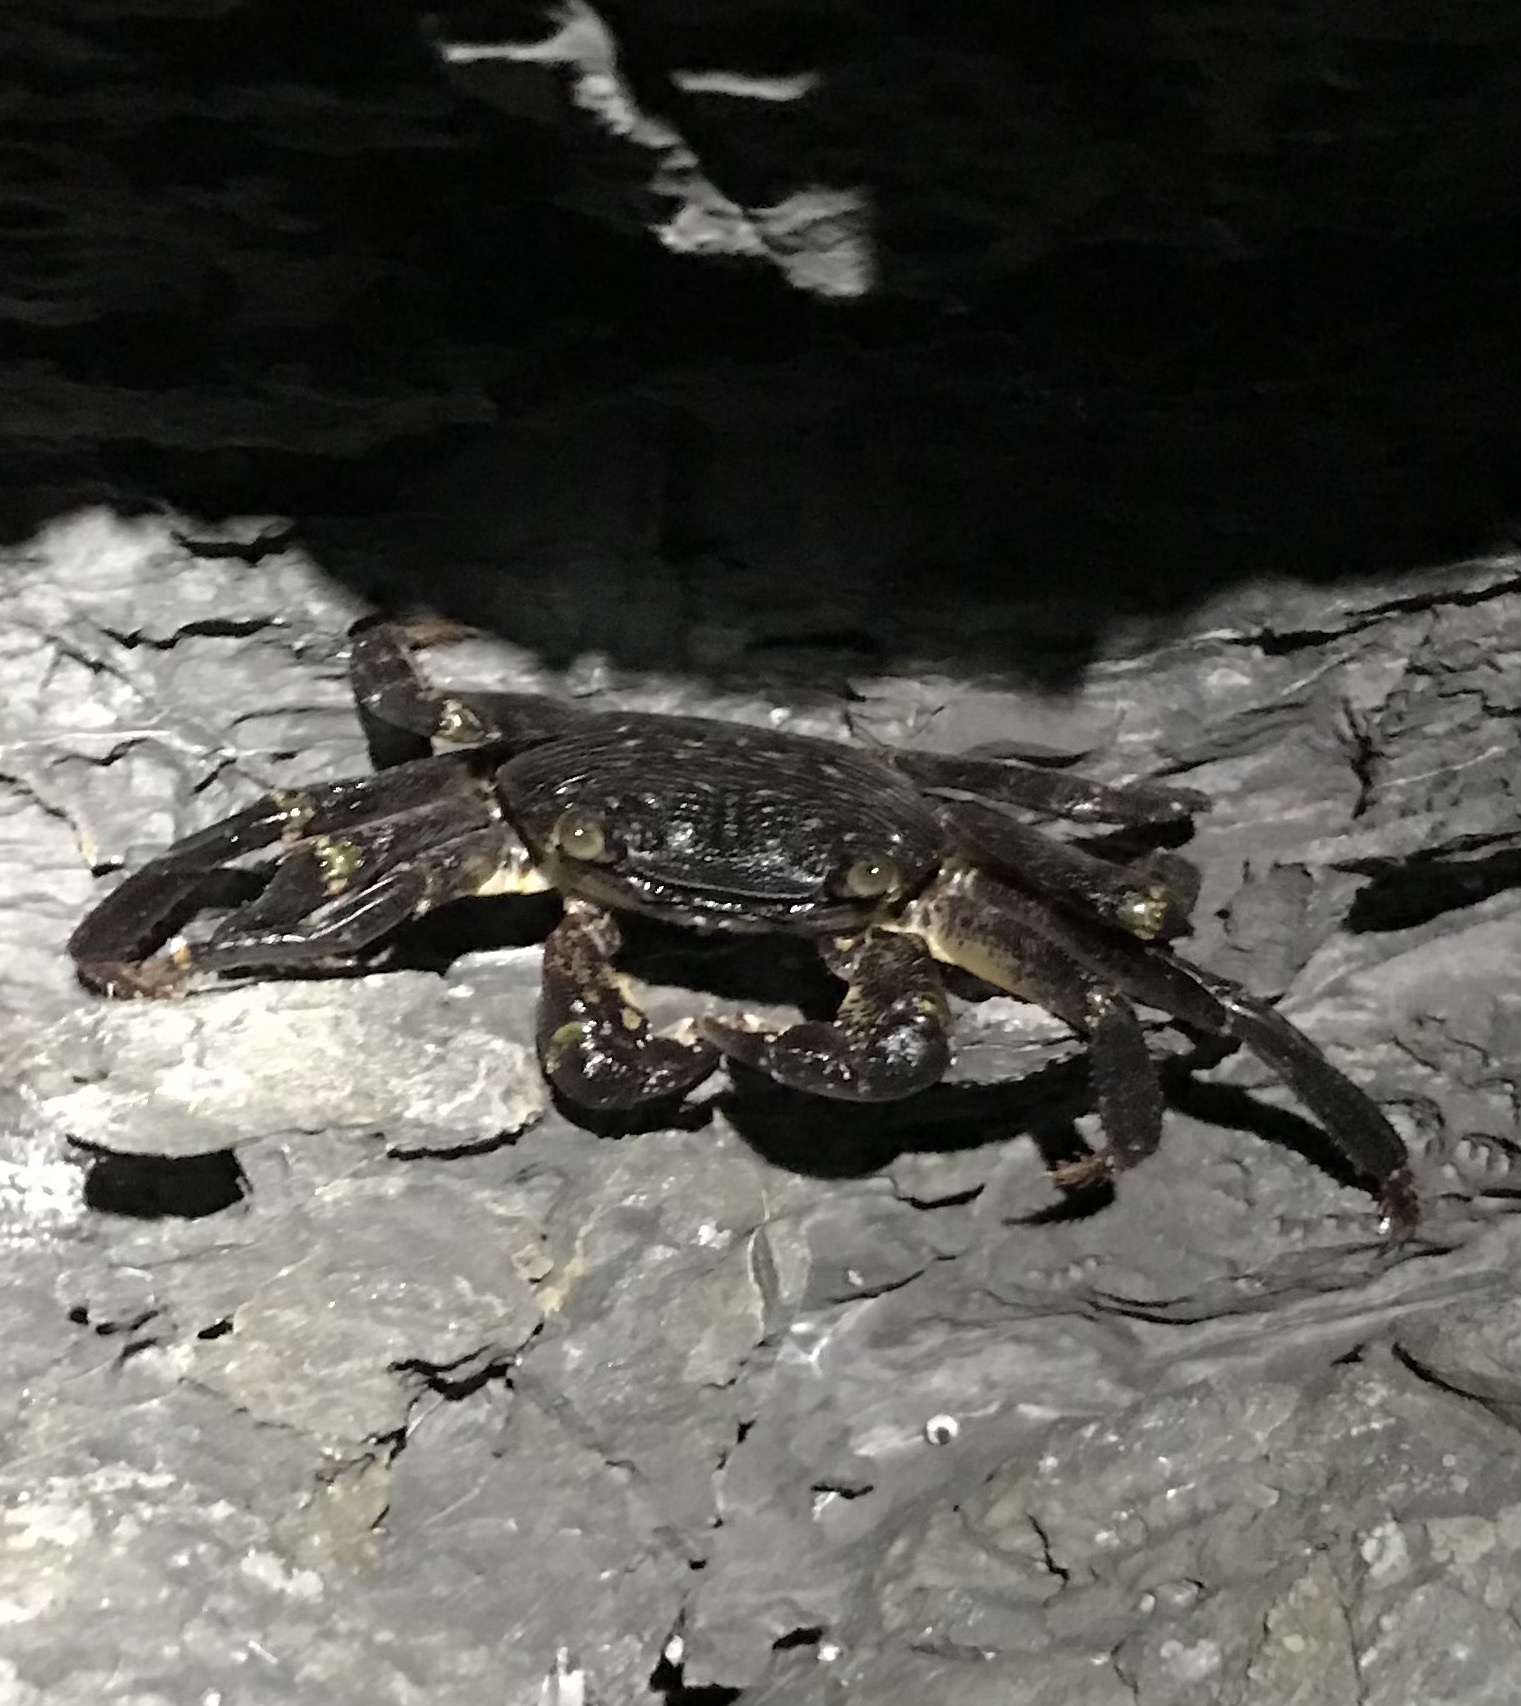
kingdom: Animalia
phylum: Arthropoda
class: Malacostraca
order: Decapoda
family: Grapsidae
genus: Leptograpsus
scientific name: Leptograpsus variegatus
